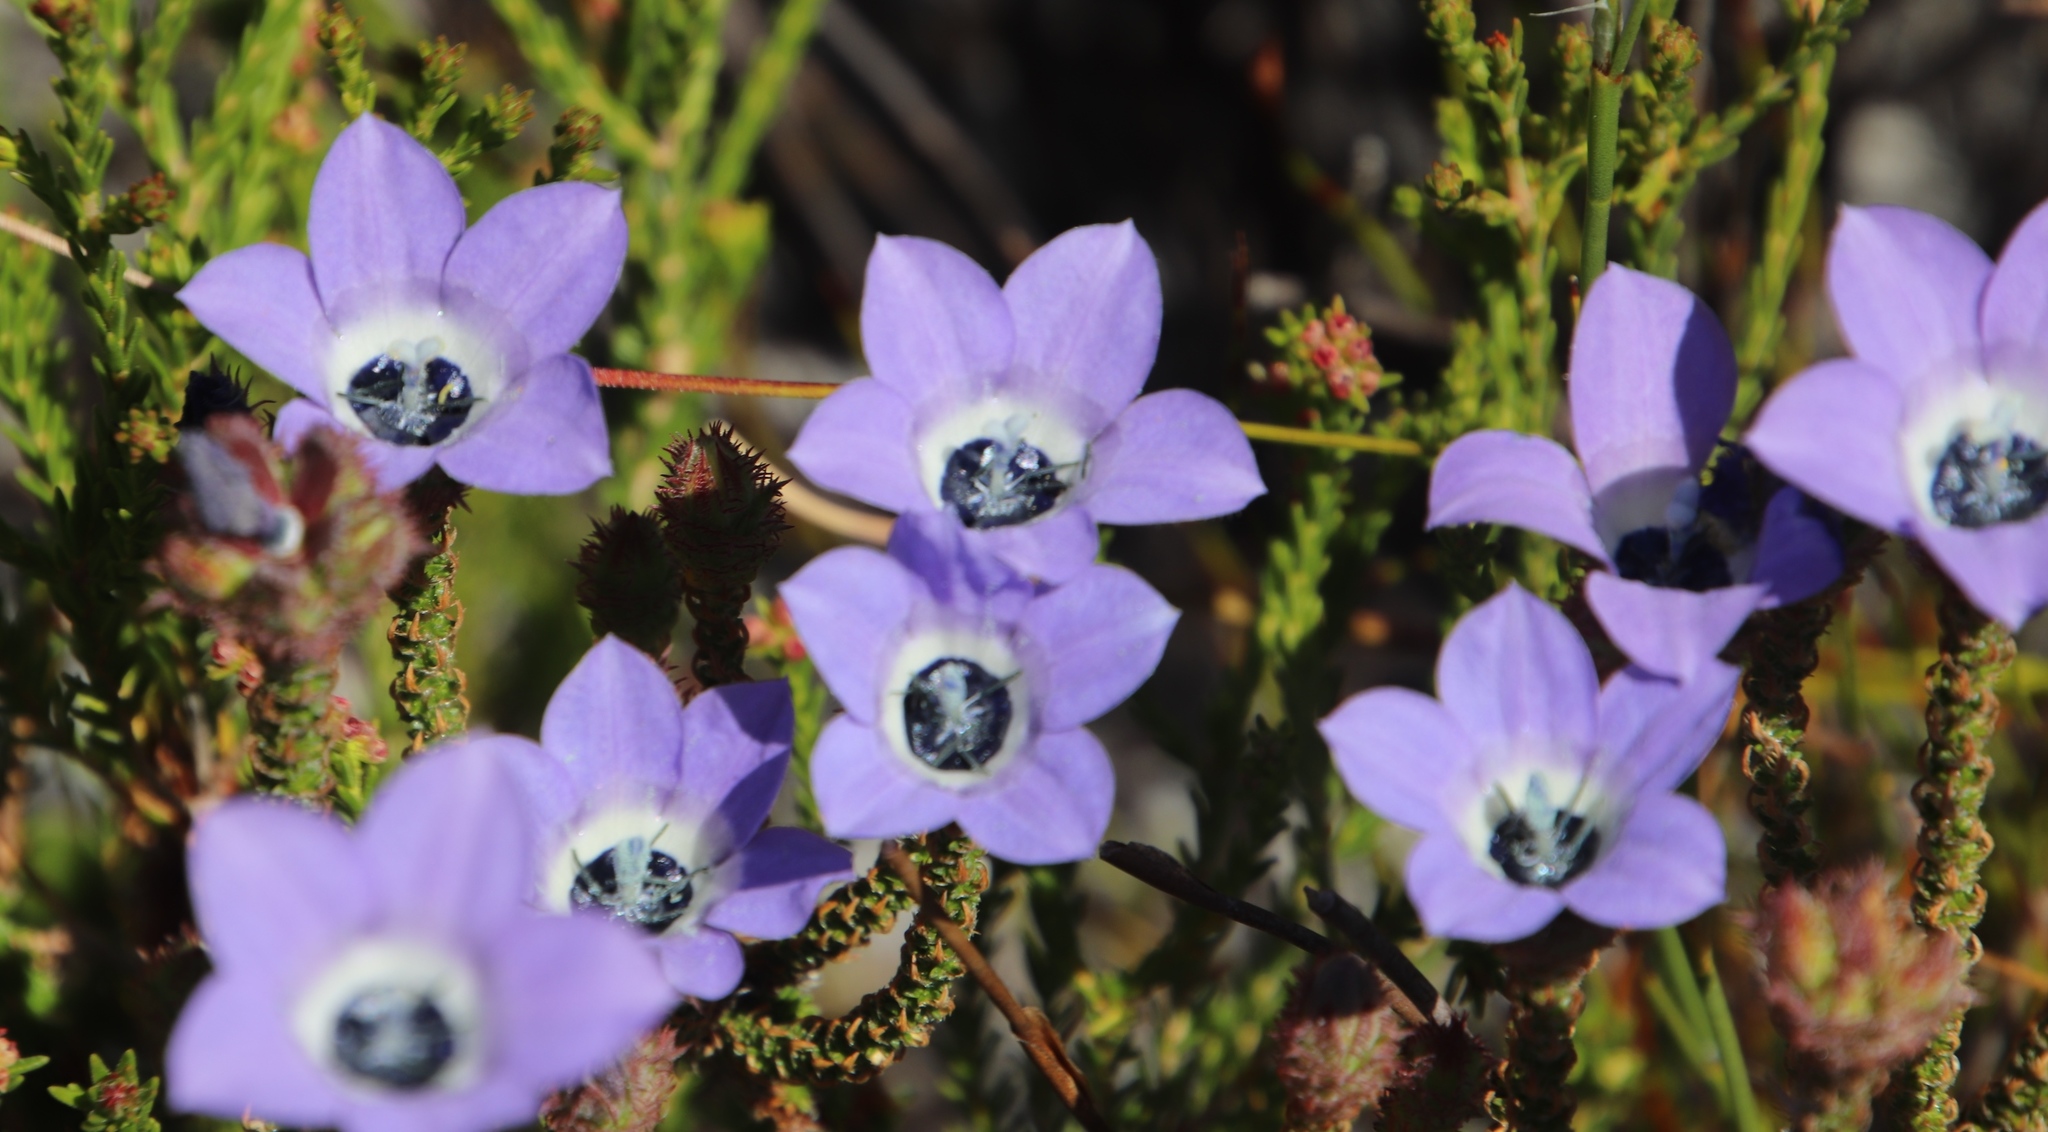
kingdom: Plantae
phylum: Tracheophyta
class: Magnoliopsida
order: Asterales
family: Campanulaceae
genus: Roella
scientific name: Roella triflora
